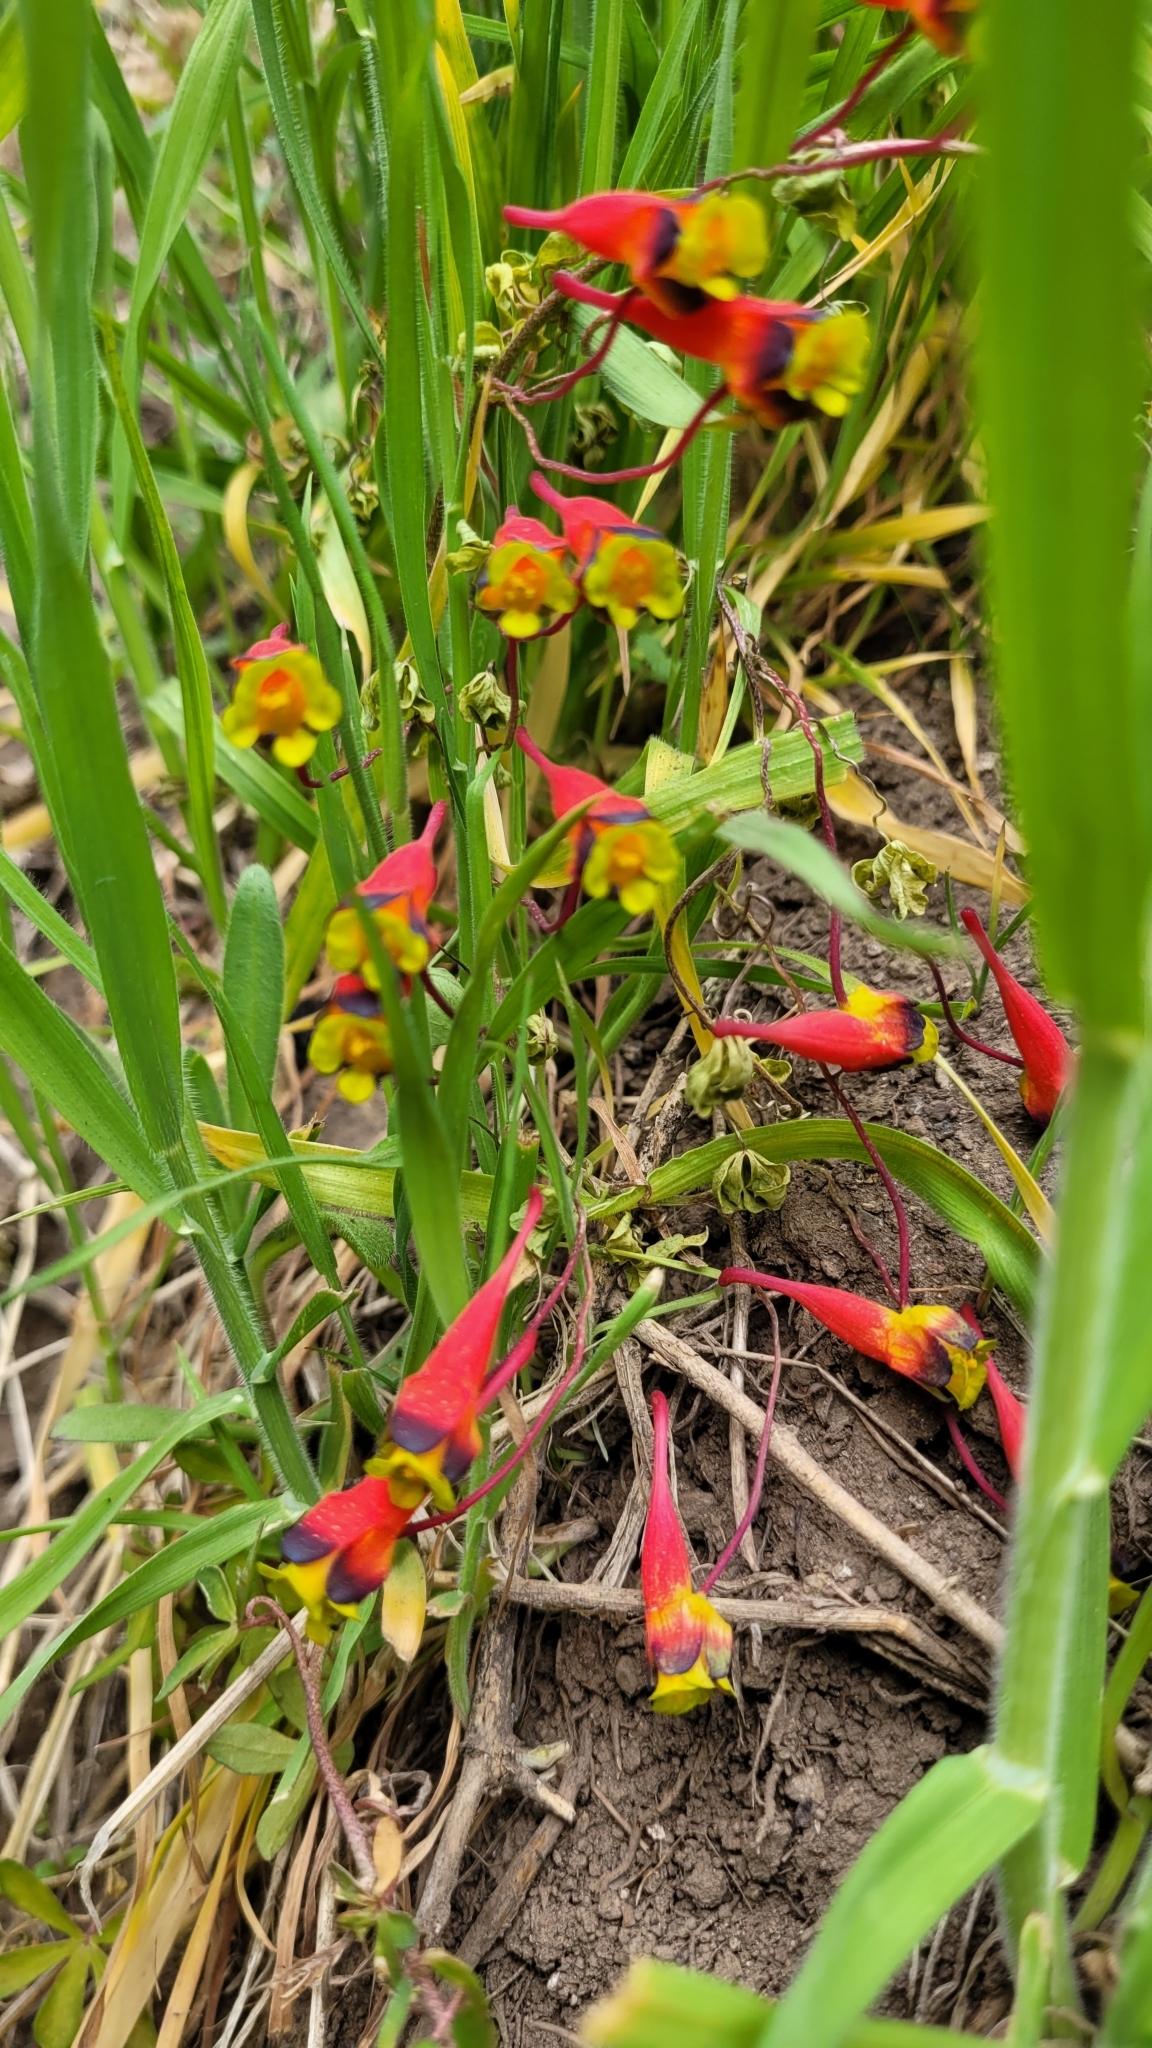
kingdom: Plantae
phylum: Tracheophyta
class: Magnoliopsida
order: Brassicales
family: Tropaeolaceae
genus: Tropaeolum
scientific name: Tropaeolum tricolor
